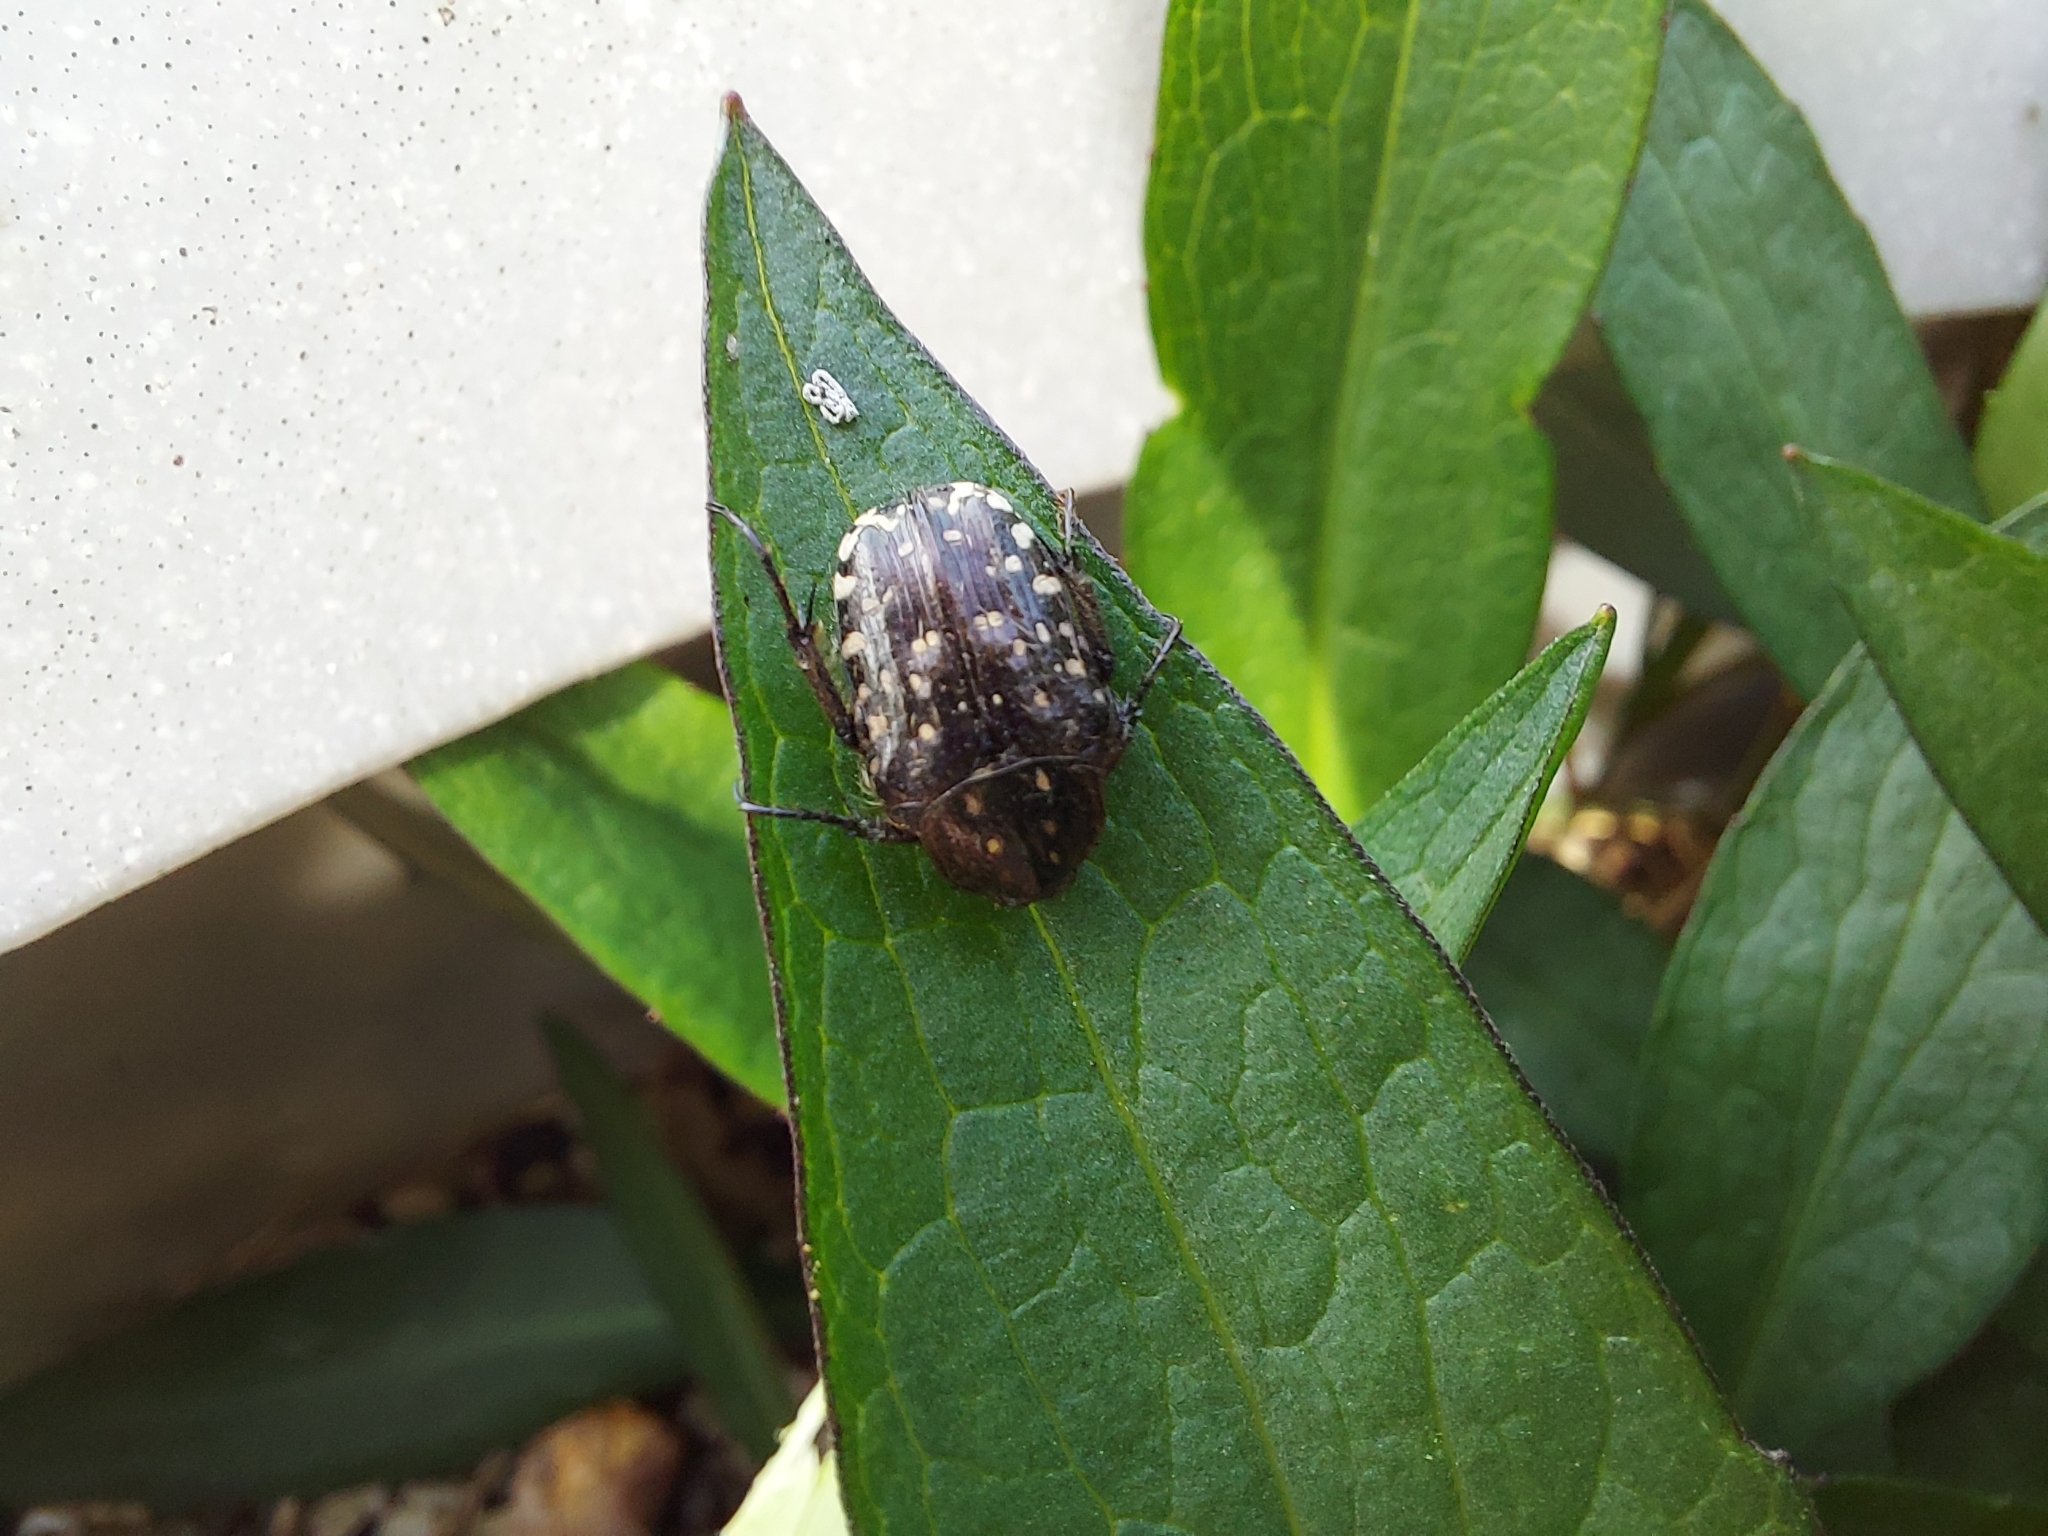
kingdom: Animalia
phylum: Arthropoda
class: Insecta
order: Coleoptera
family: Scarabaeidae
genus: Oxythyrea
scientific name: Oxythyrea funesta
